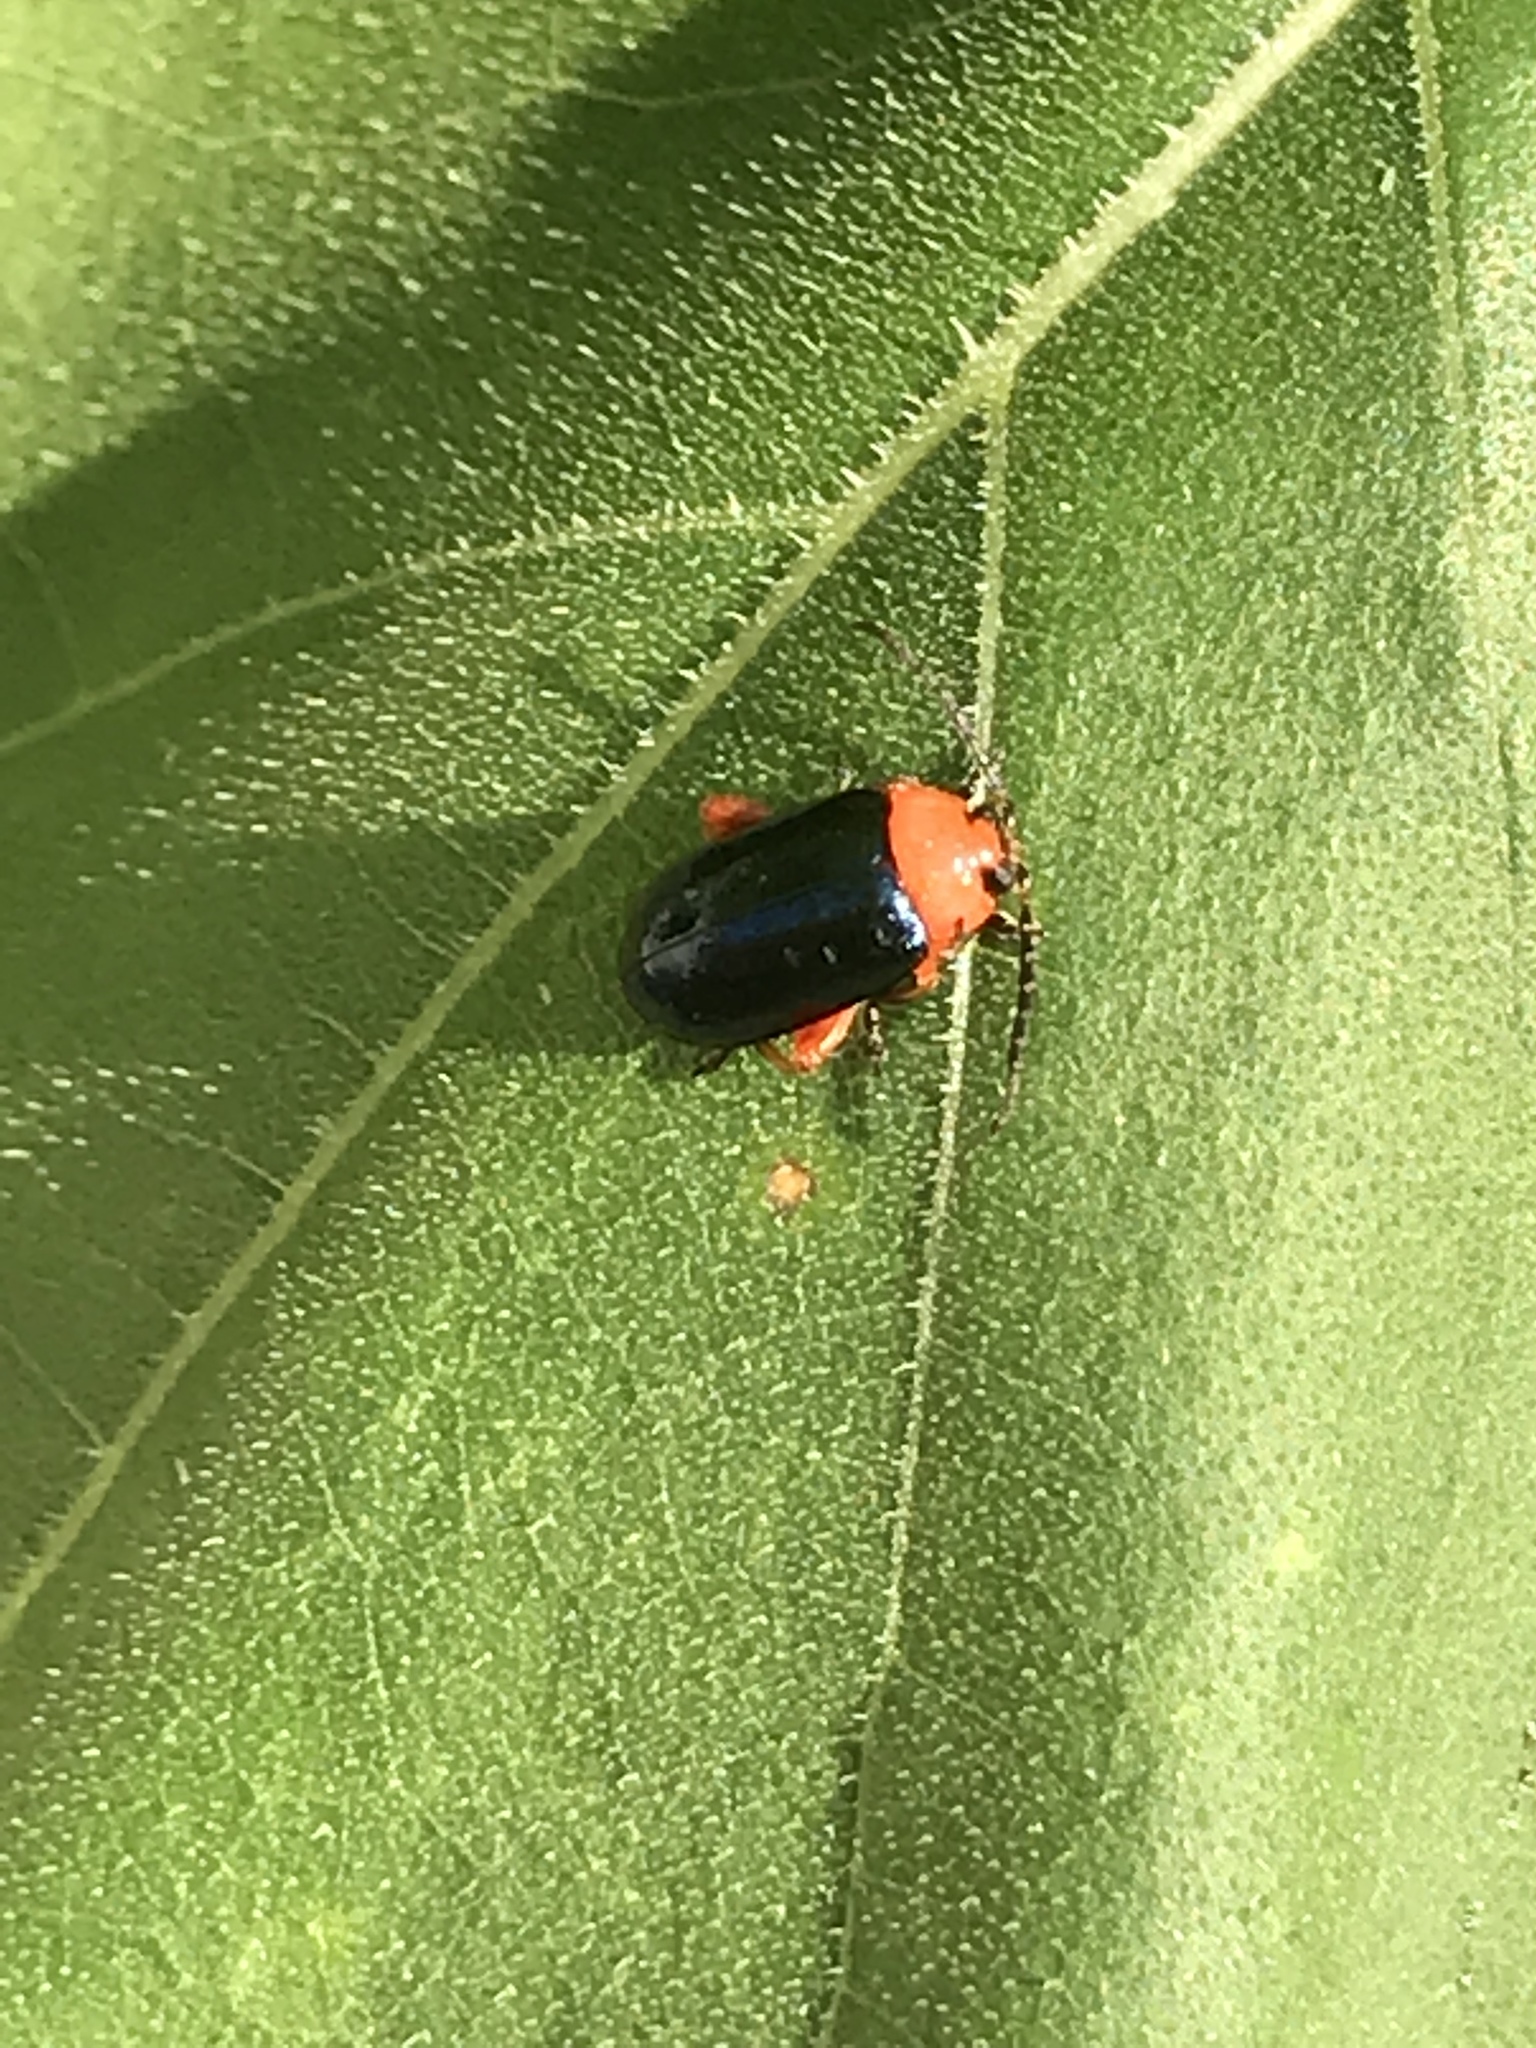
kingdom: Animalia
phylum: Arthropoda
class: Insecta
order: Coleoptera
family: Chrysomelidae
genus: Asphaera
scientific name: Asphaera lustrans
